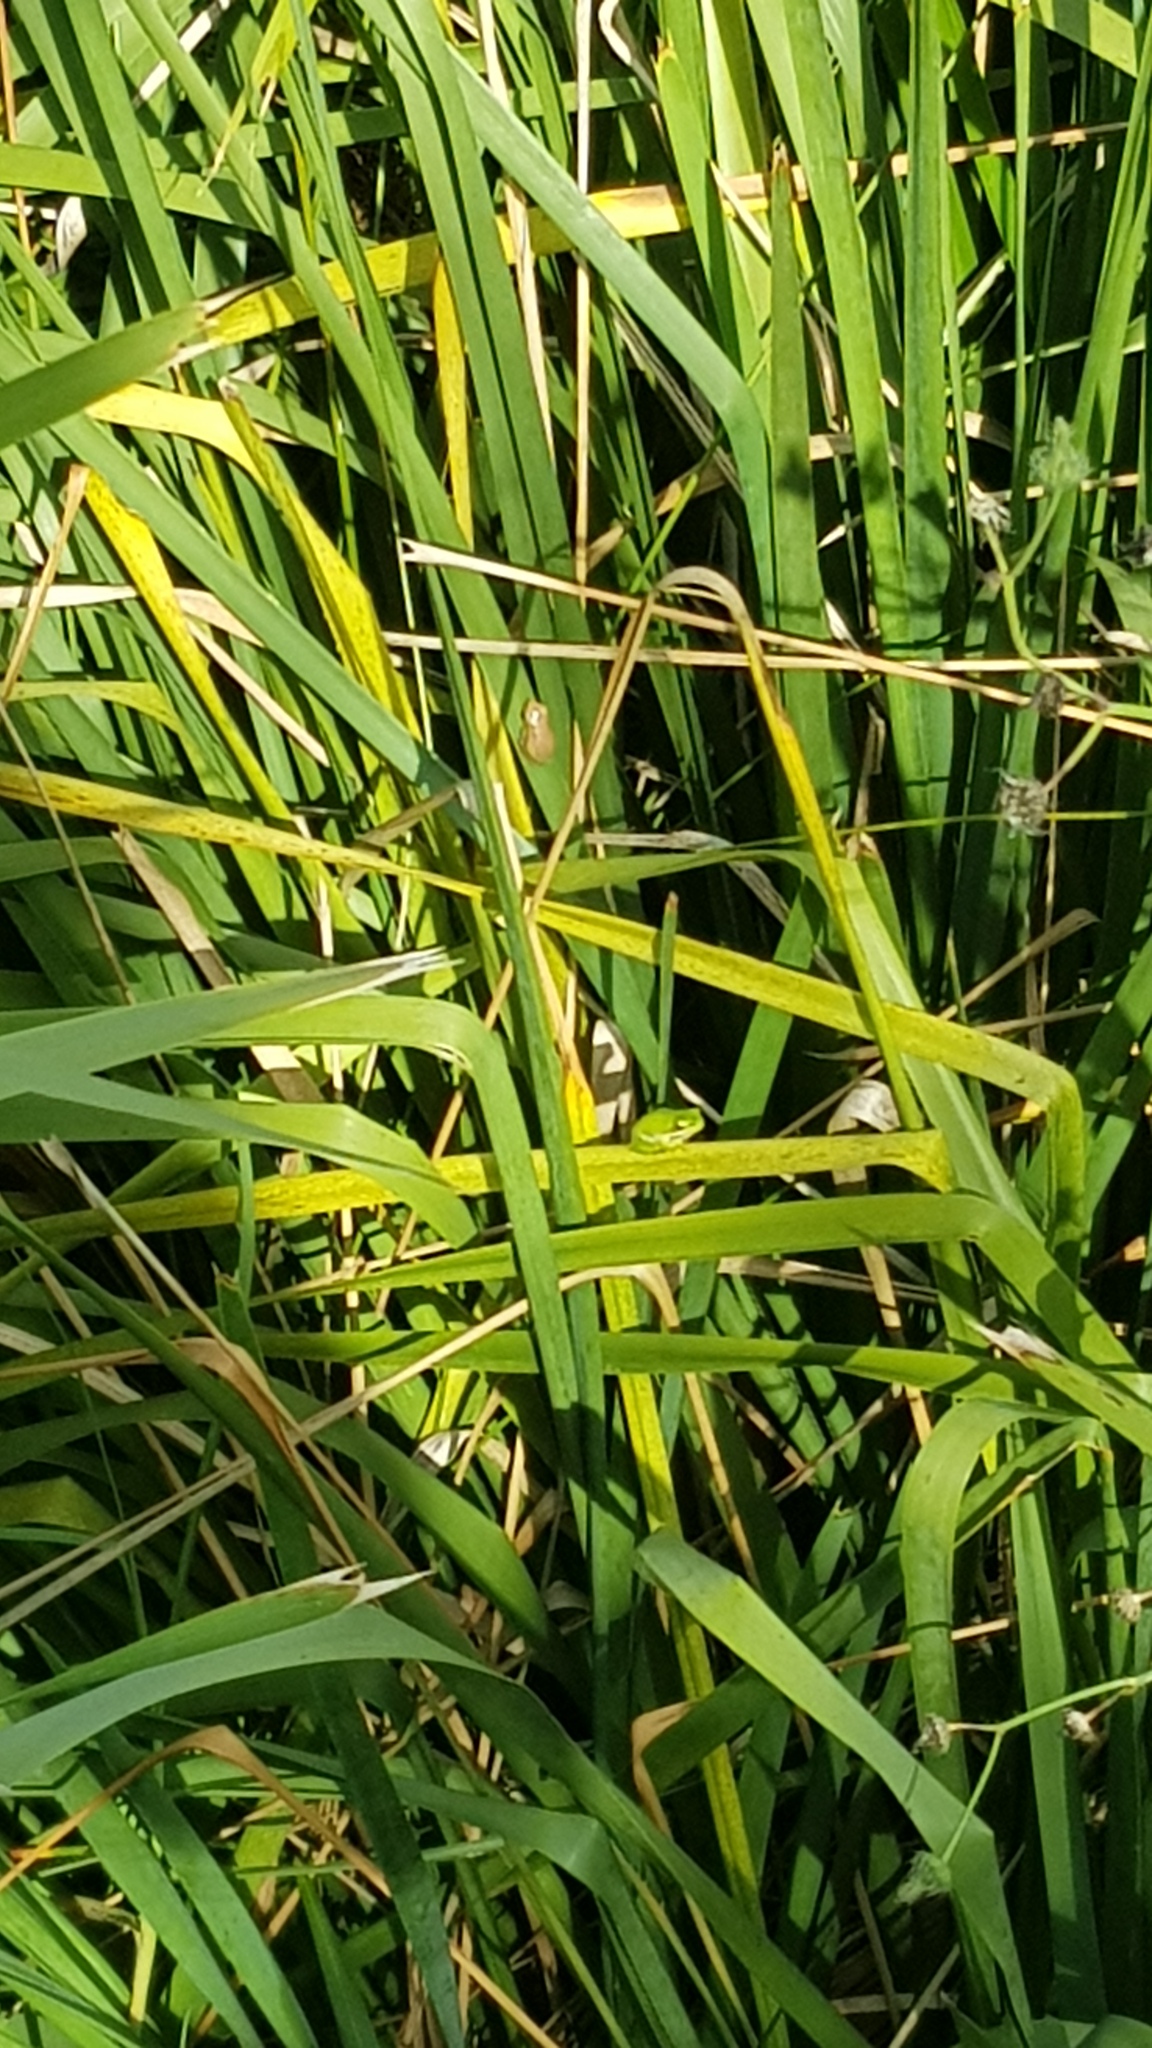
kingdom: Animalia
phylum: Chordata
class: Amphibia
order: Anura
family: Pelodryadidae
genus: Litoria
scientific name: Litoria fallax
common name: Eastern dwarf treefrog
